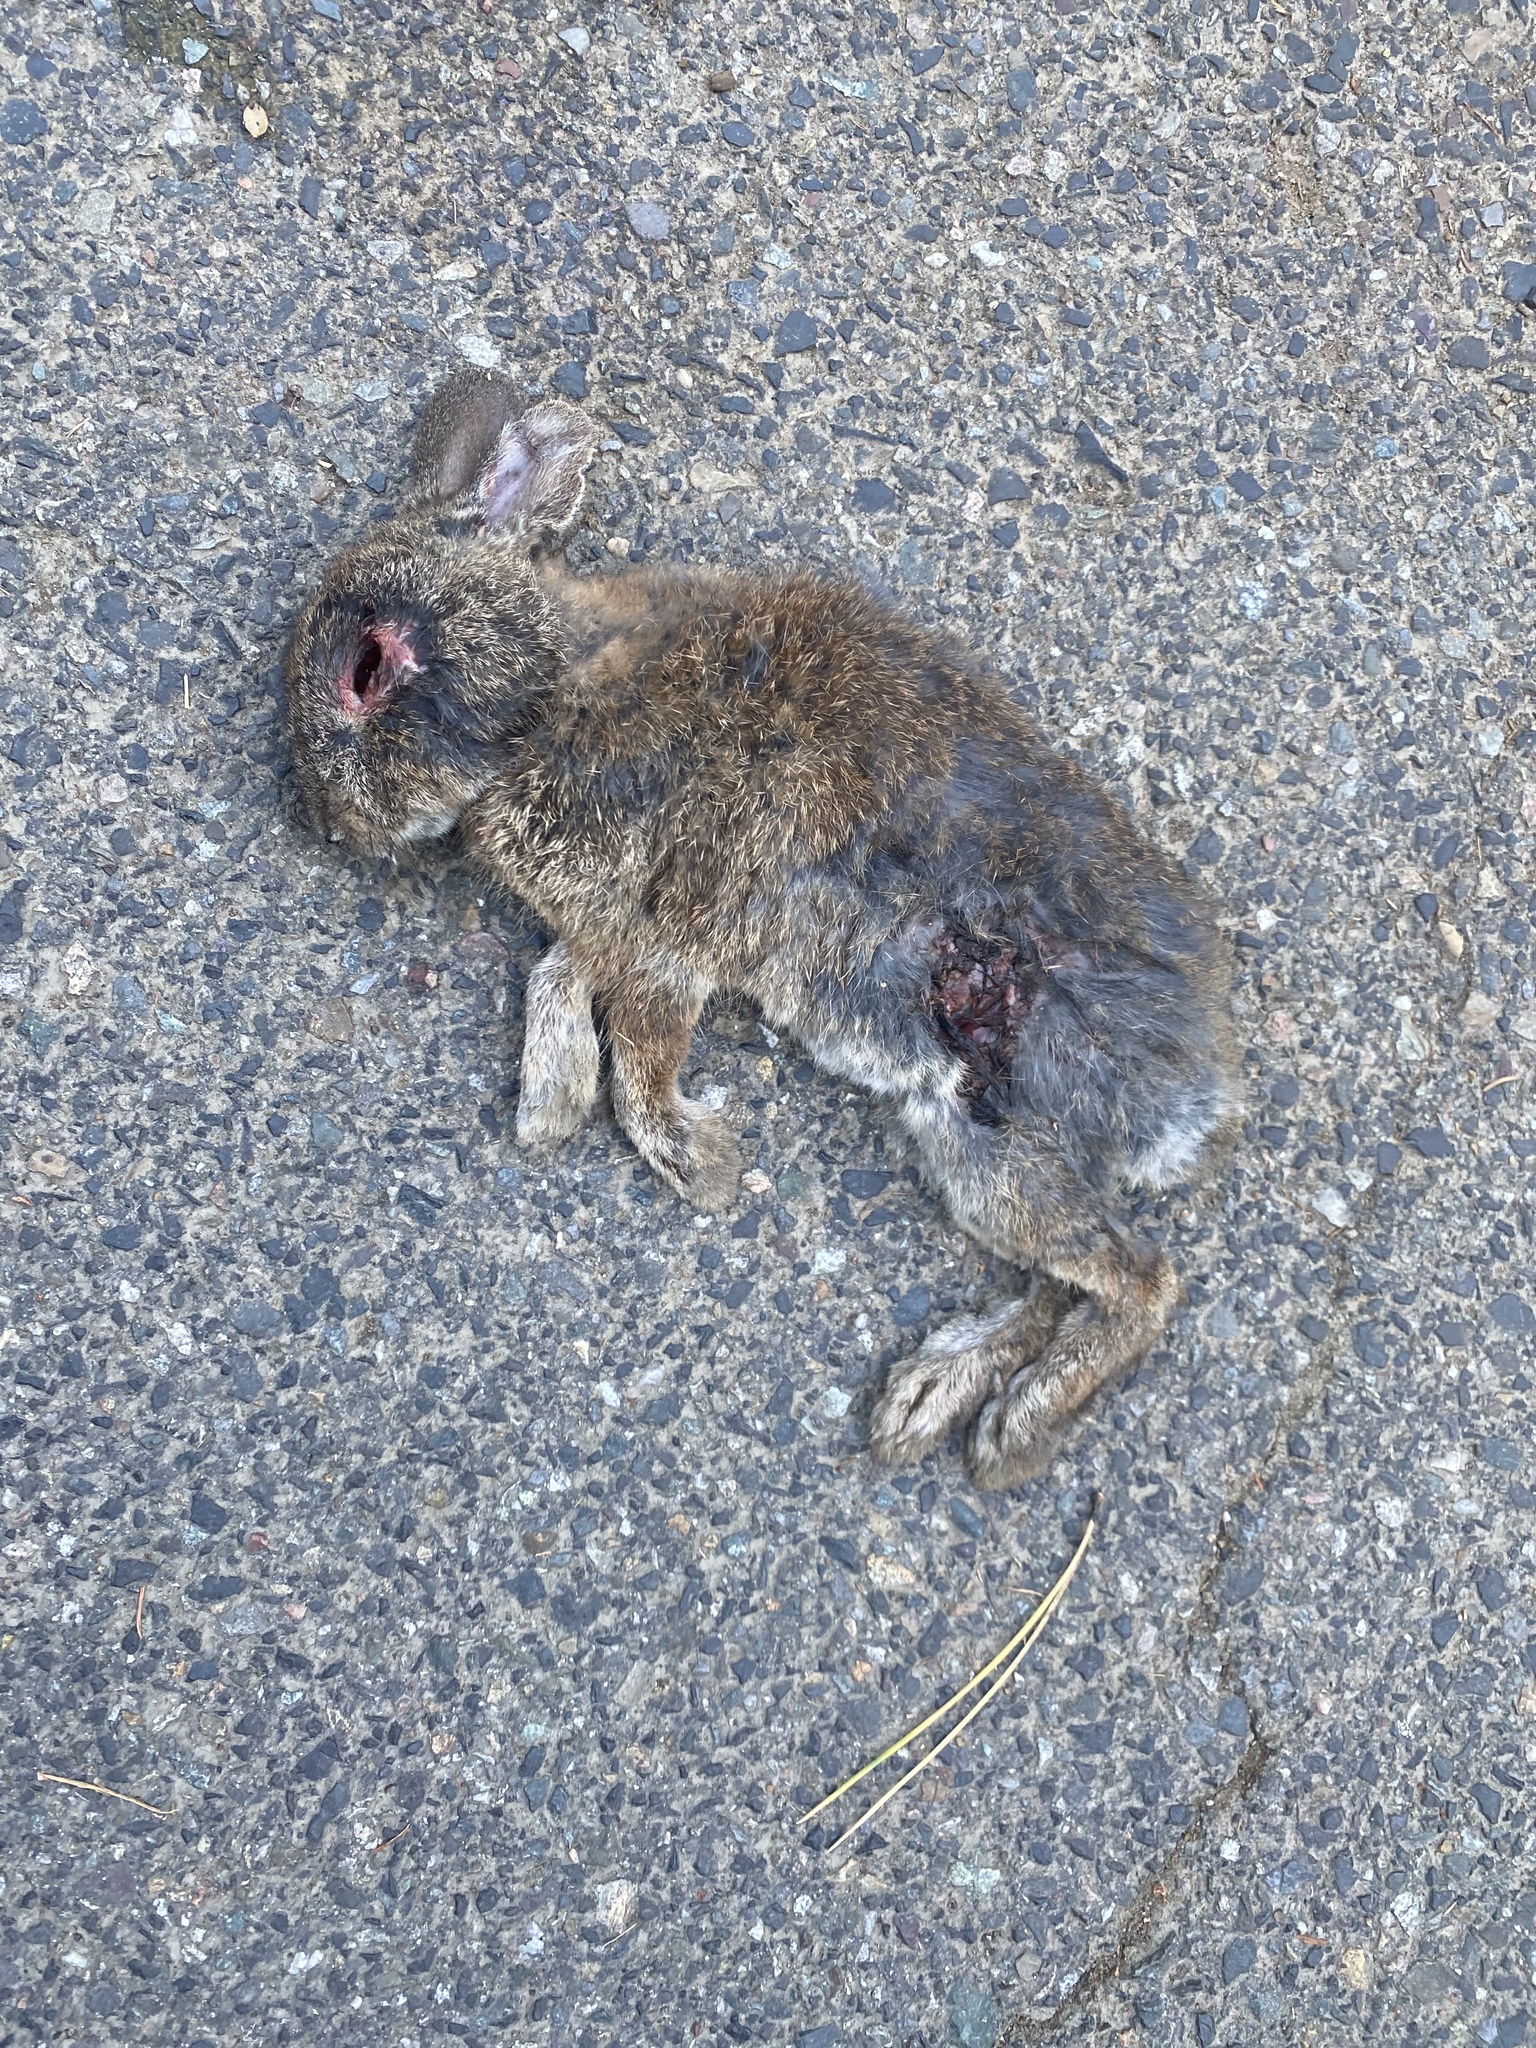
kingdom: Animalia
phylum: Chordata
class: Mammalia
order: Lagomorpha
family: Leporidae
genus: Sylvilagus
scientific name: Sylvilagus
